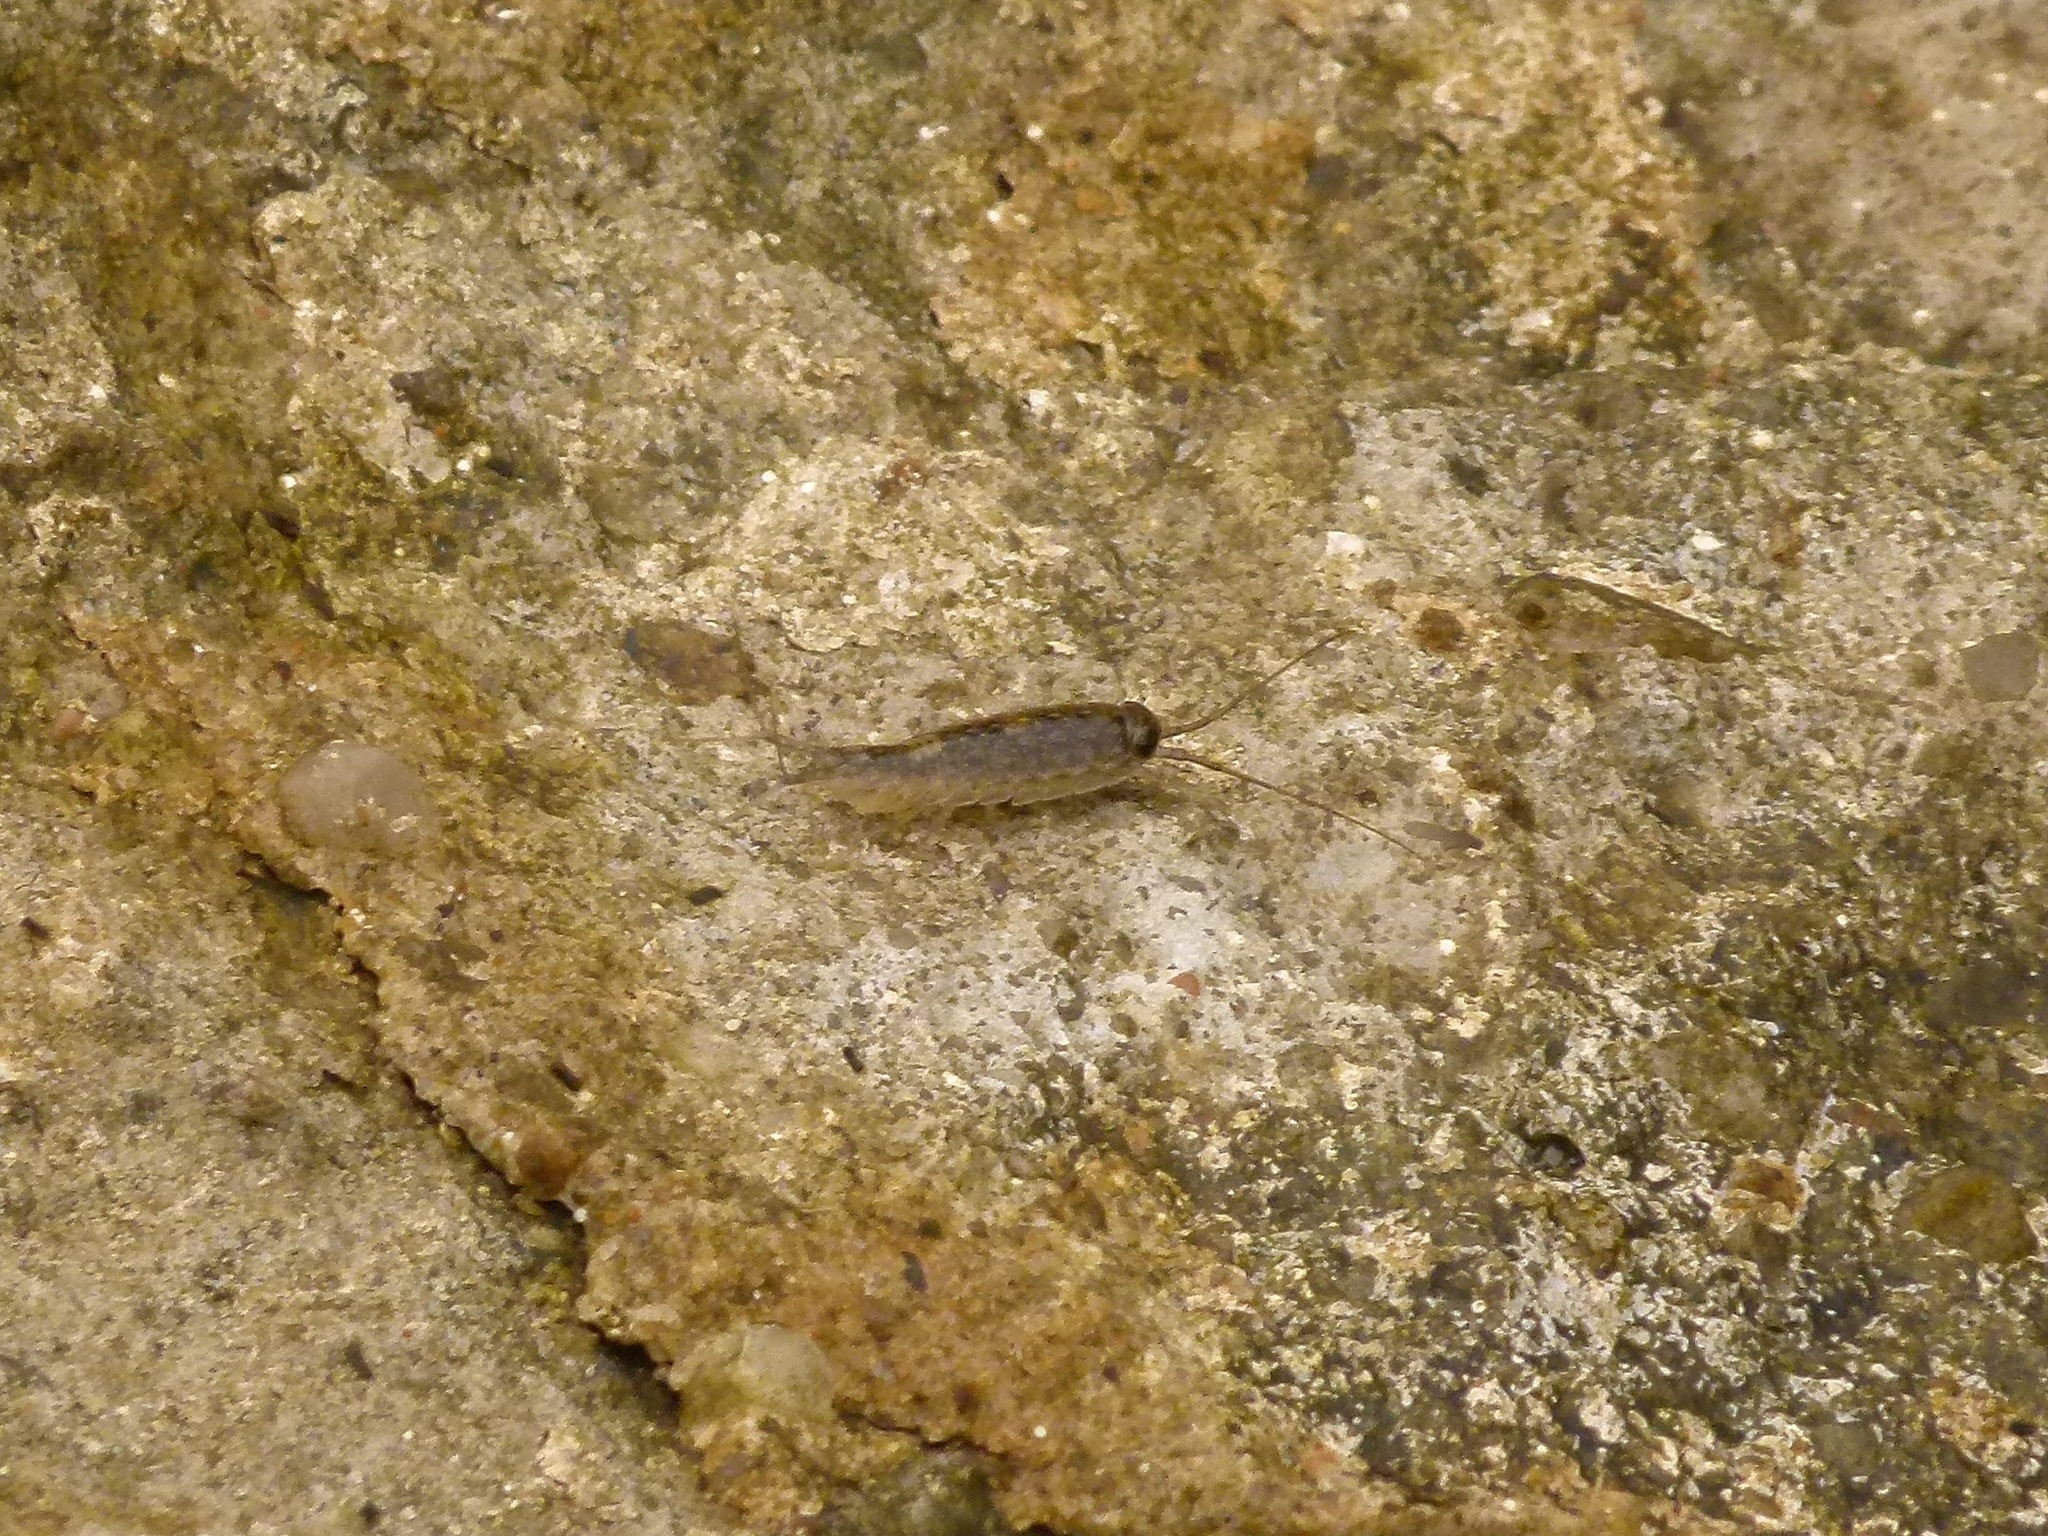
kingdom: Animalia
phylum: Arthropoda
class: Malacostraca
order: Isopoda
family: Ligiidae
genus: Ligia
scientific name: Ligia exotica
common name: Wharf roach
